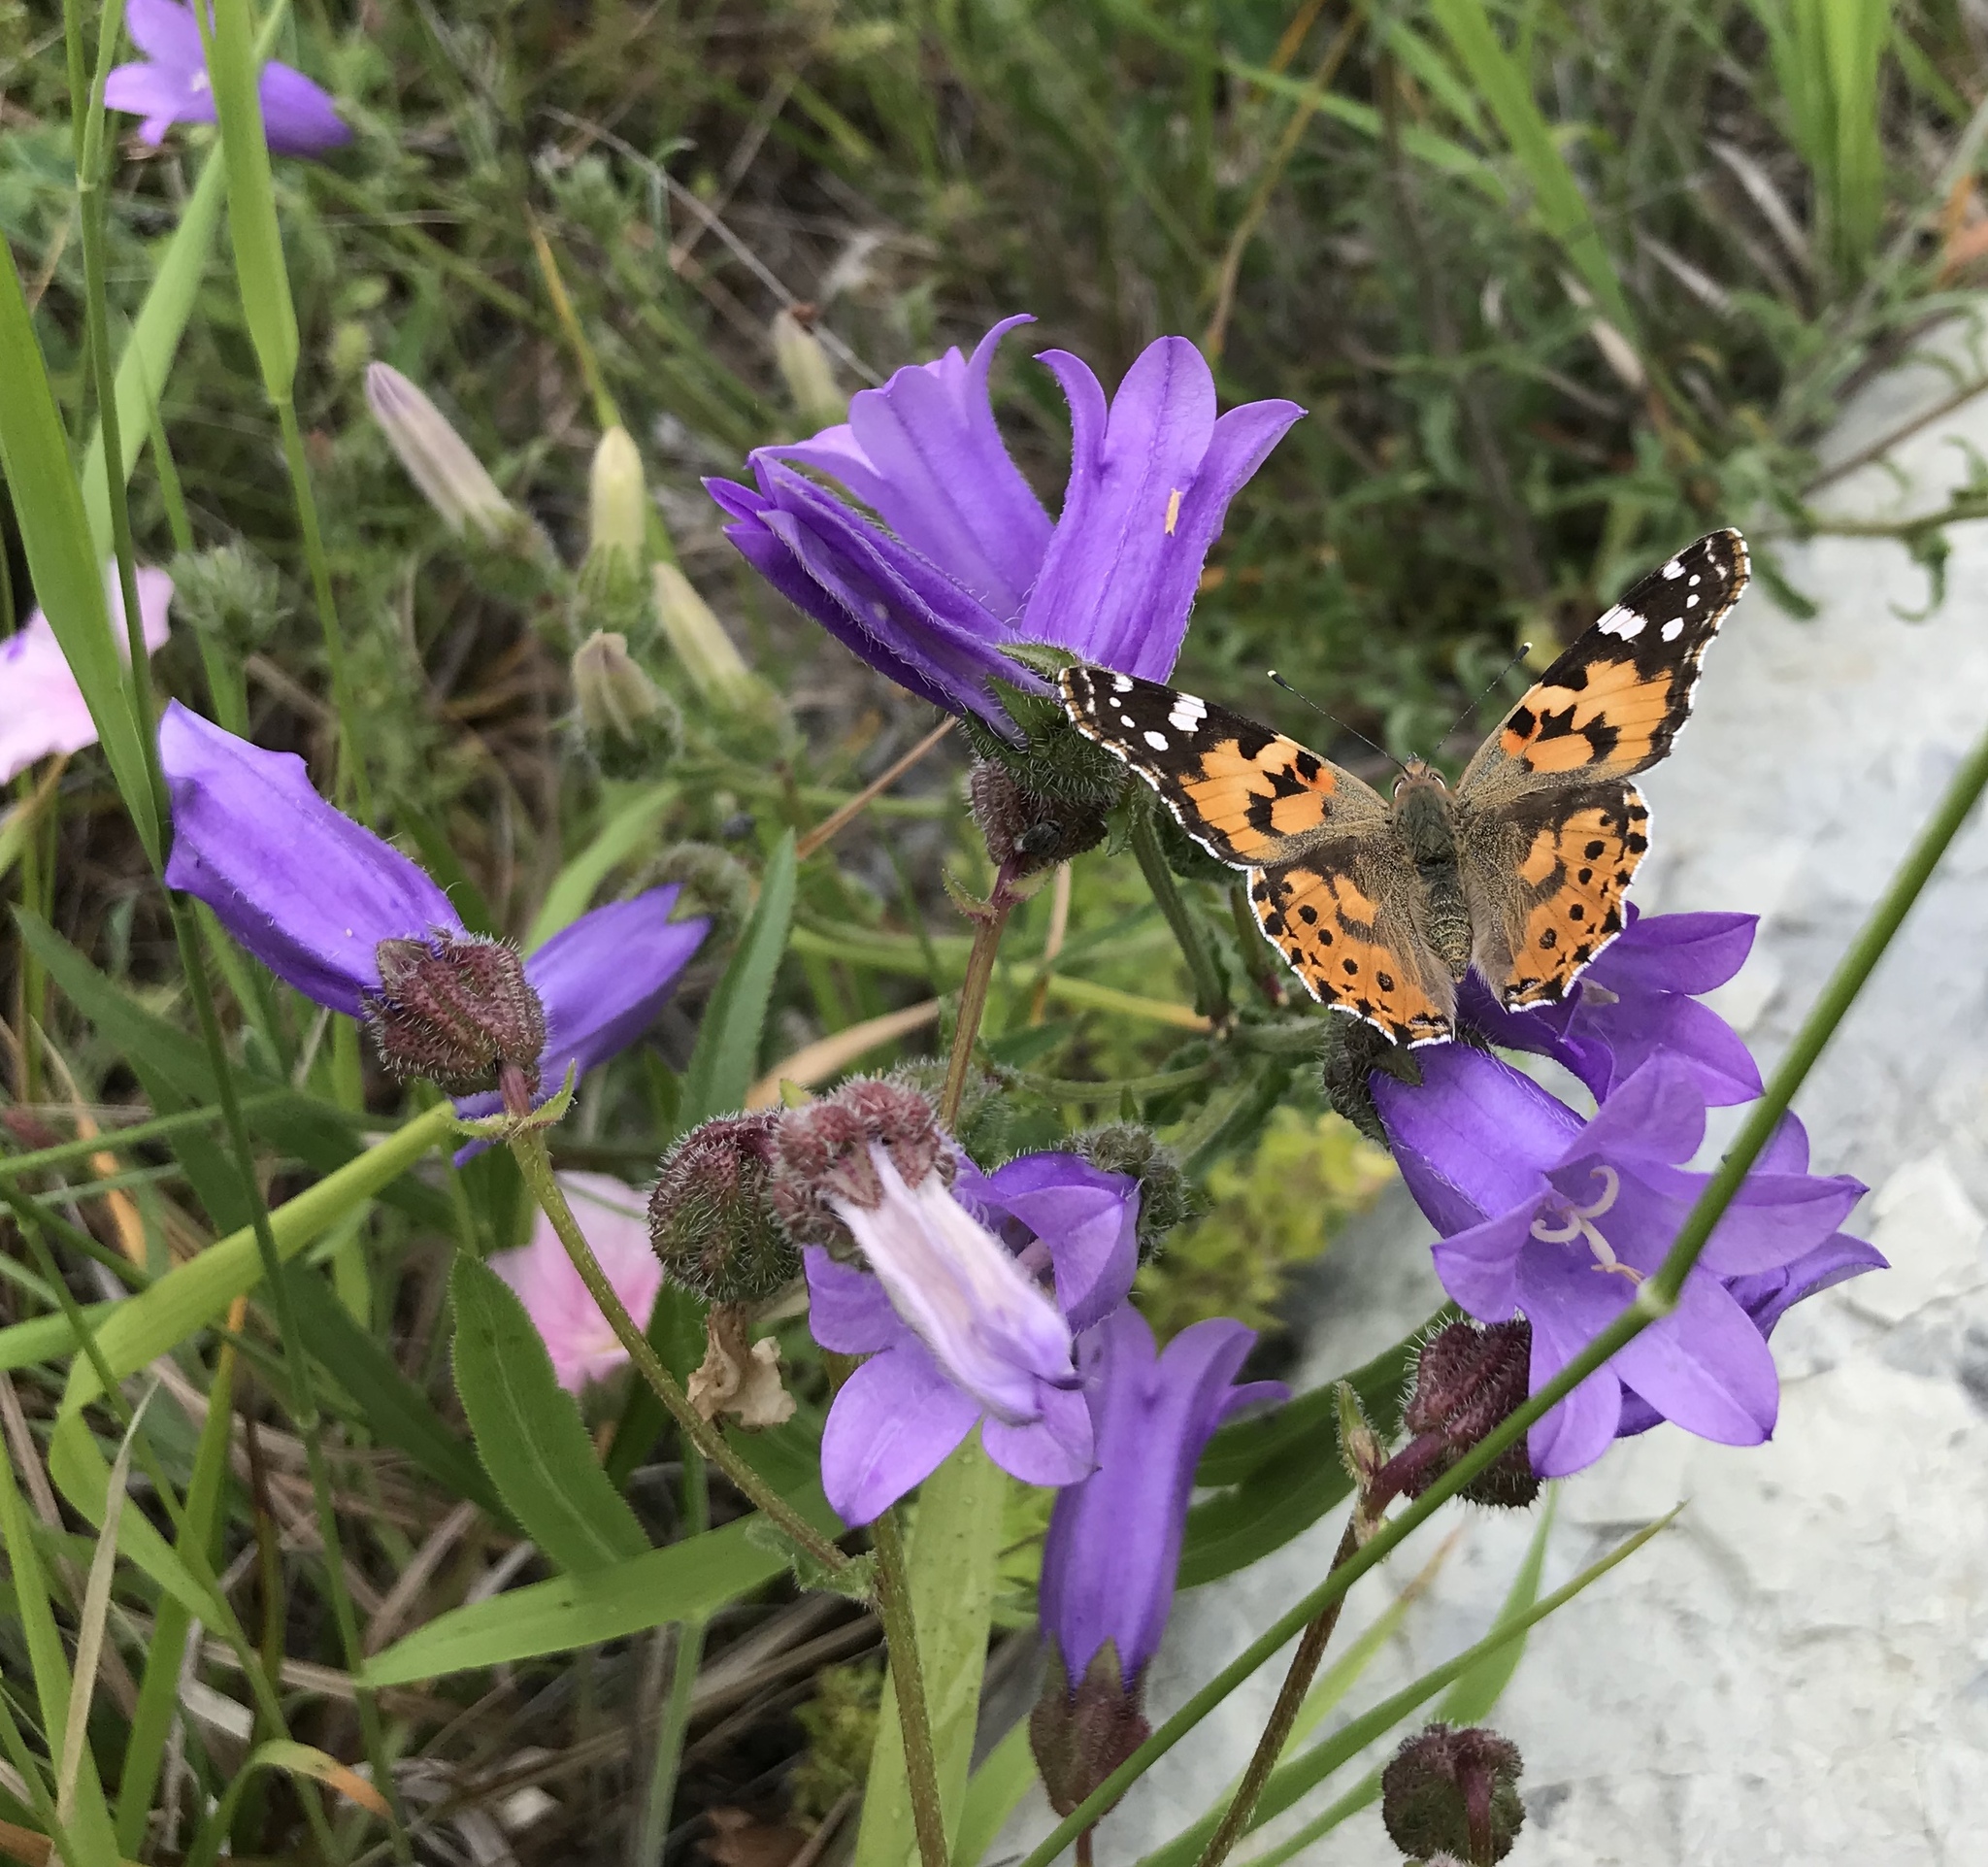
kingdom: Plantae
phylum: Tracheophyta
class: Magnoliopsida
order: Asterales
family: Campanulaceae
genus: Campanula
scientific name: Campanula komarovii
